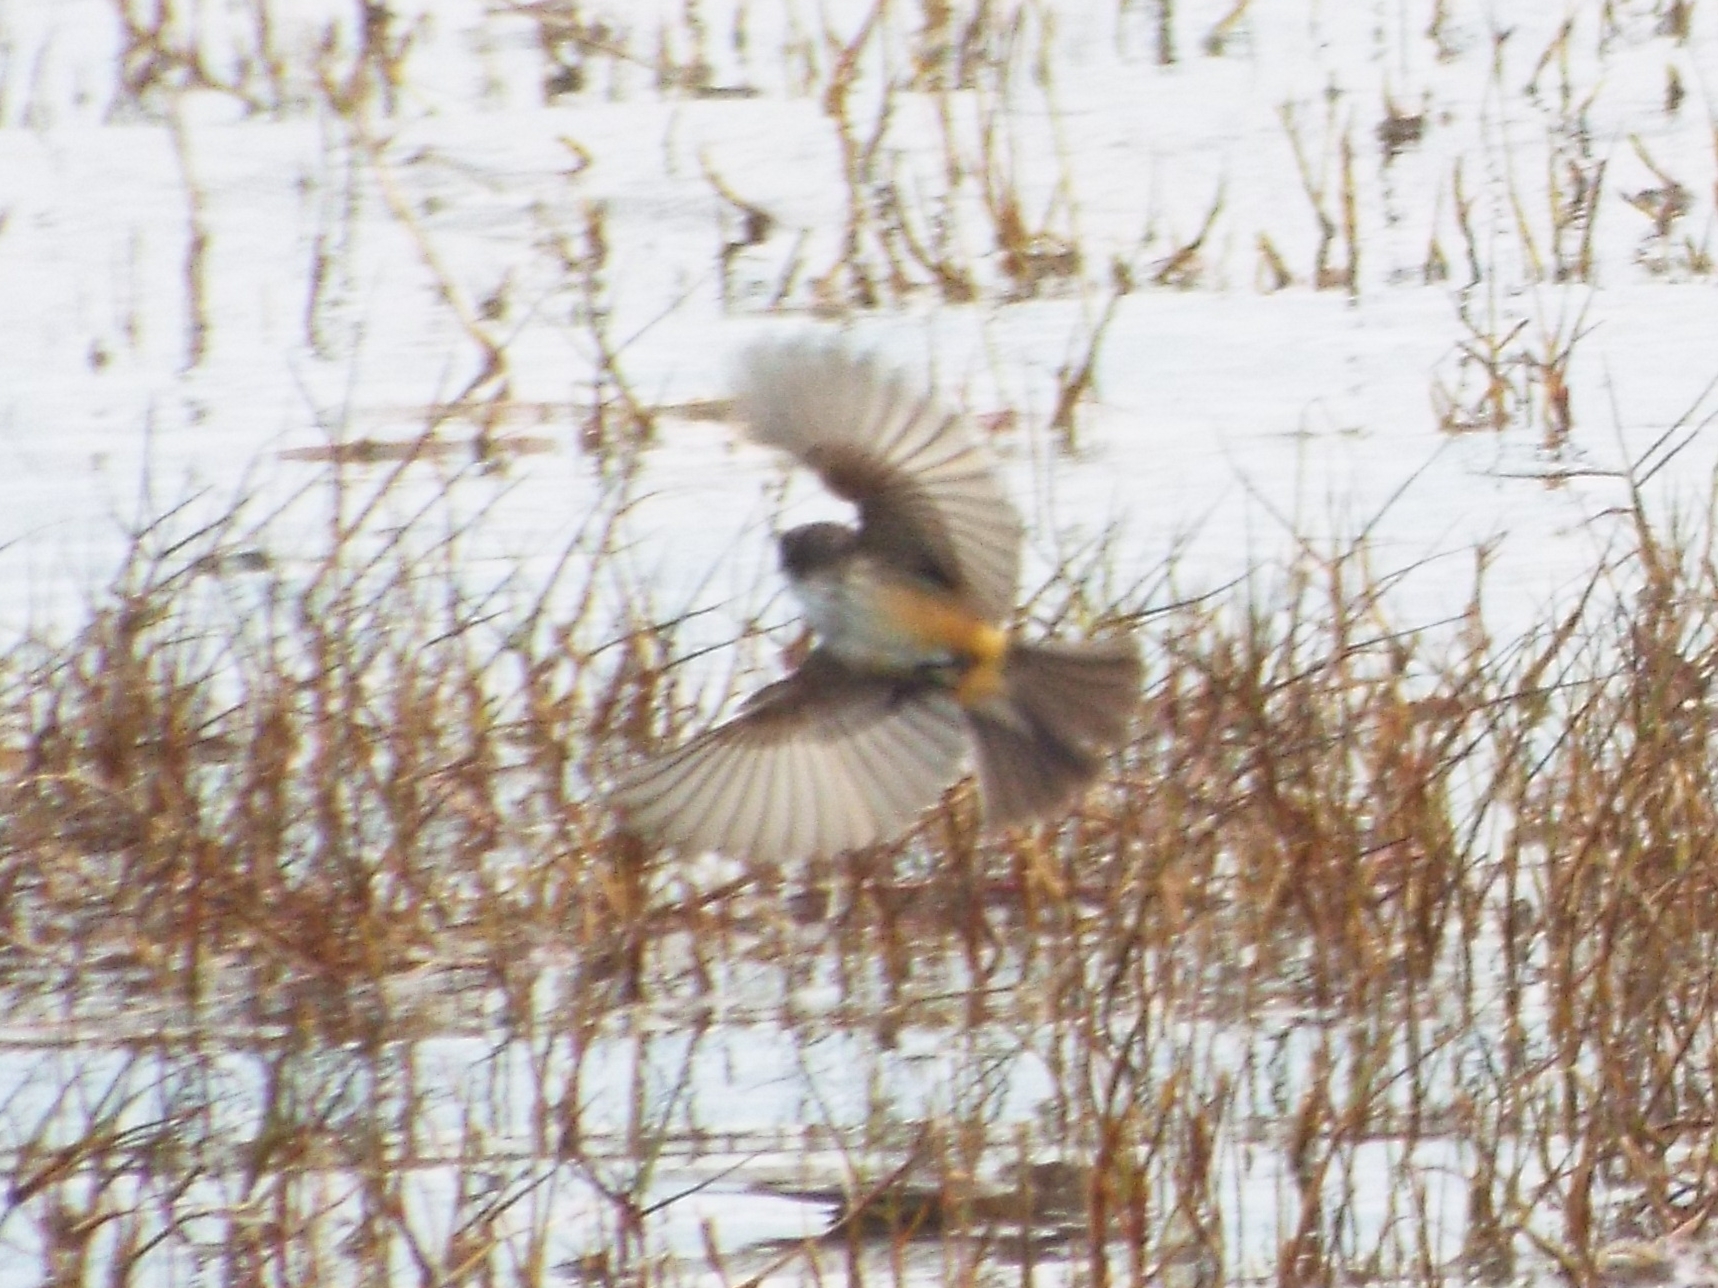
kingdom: Animalia
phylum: Chordata
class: Aves
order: Passeriformes
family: Tyrannidae
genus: Pyrocephalus
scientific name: Pyrocephalus rubinus
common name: Vermilion flycatcher
